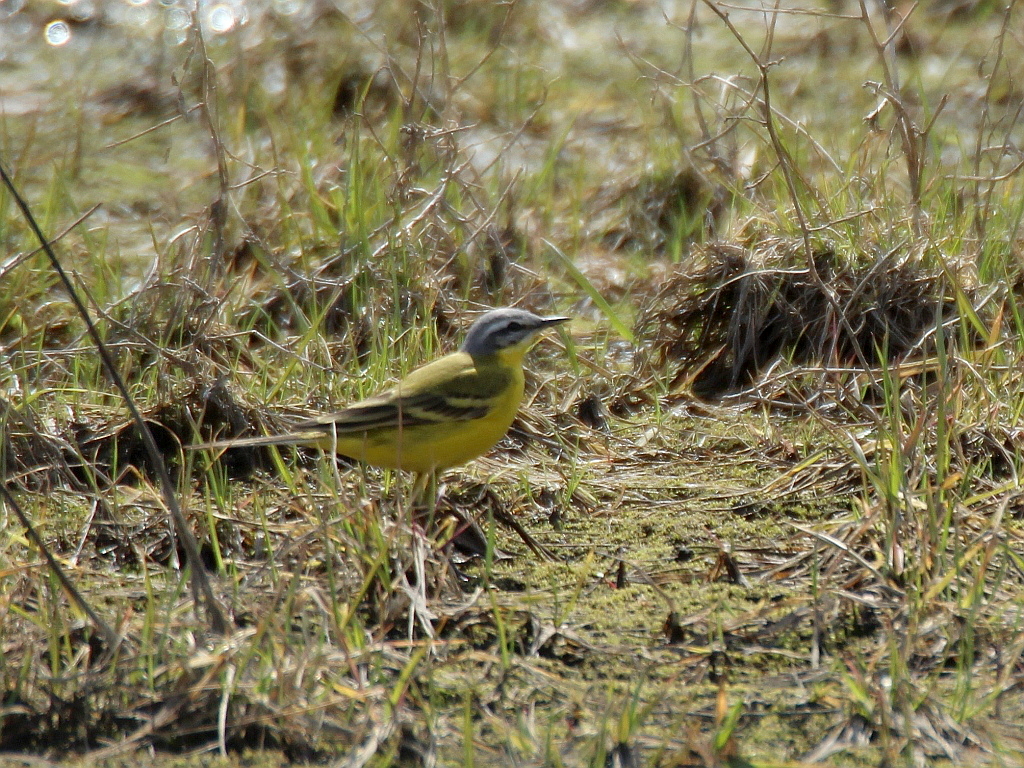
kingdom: Animalia
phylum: Chordata
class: Aves
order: Passeriformes
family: Motacillidae
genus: Motacilla
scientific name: Motacilla flava
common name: Western yellow wagtail
